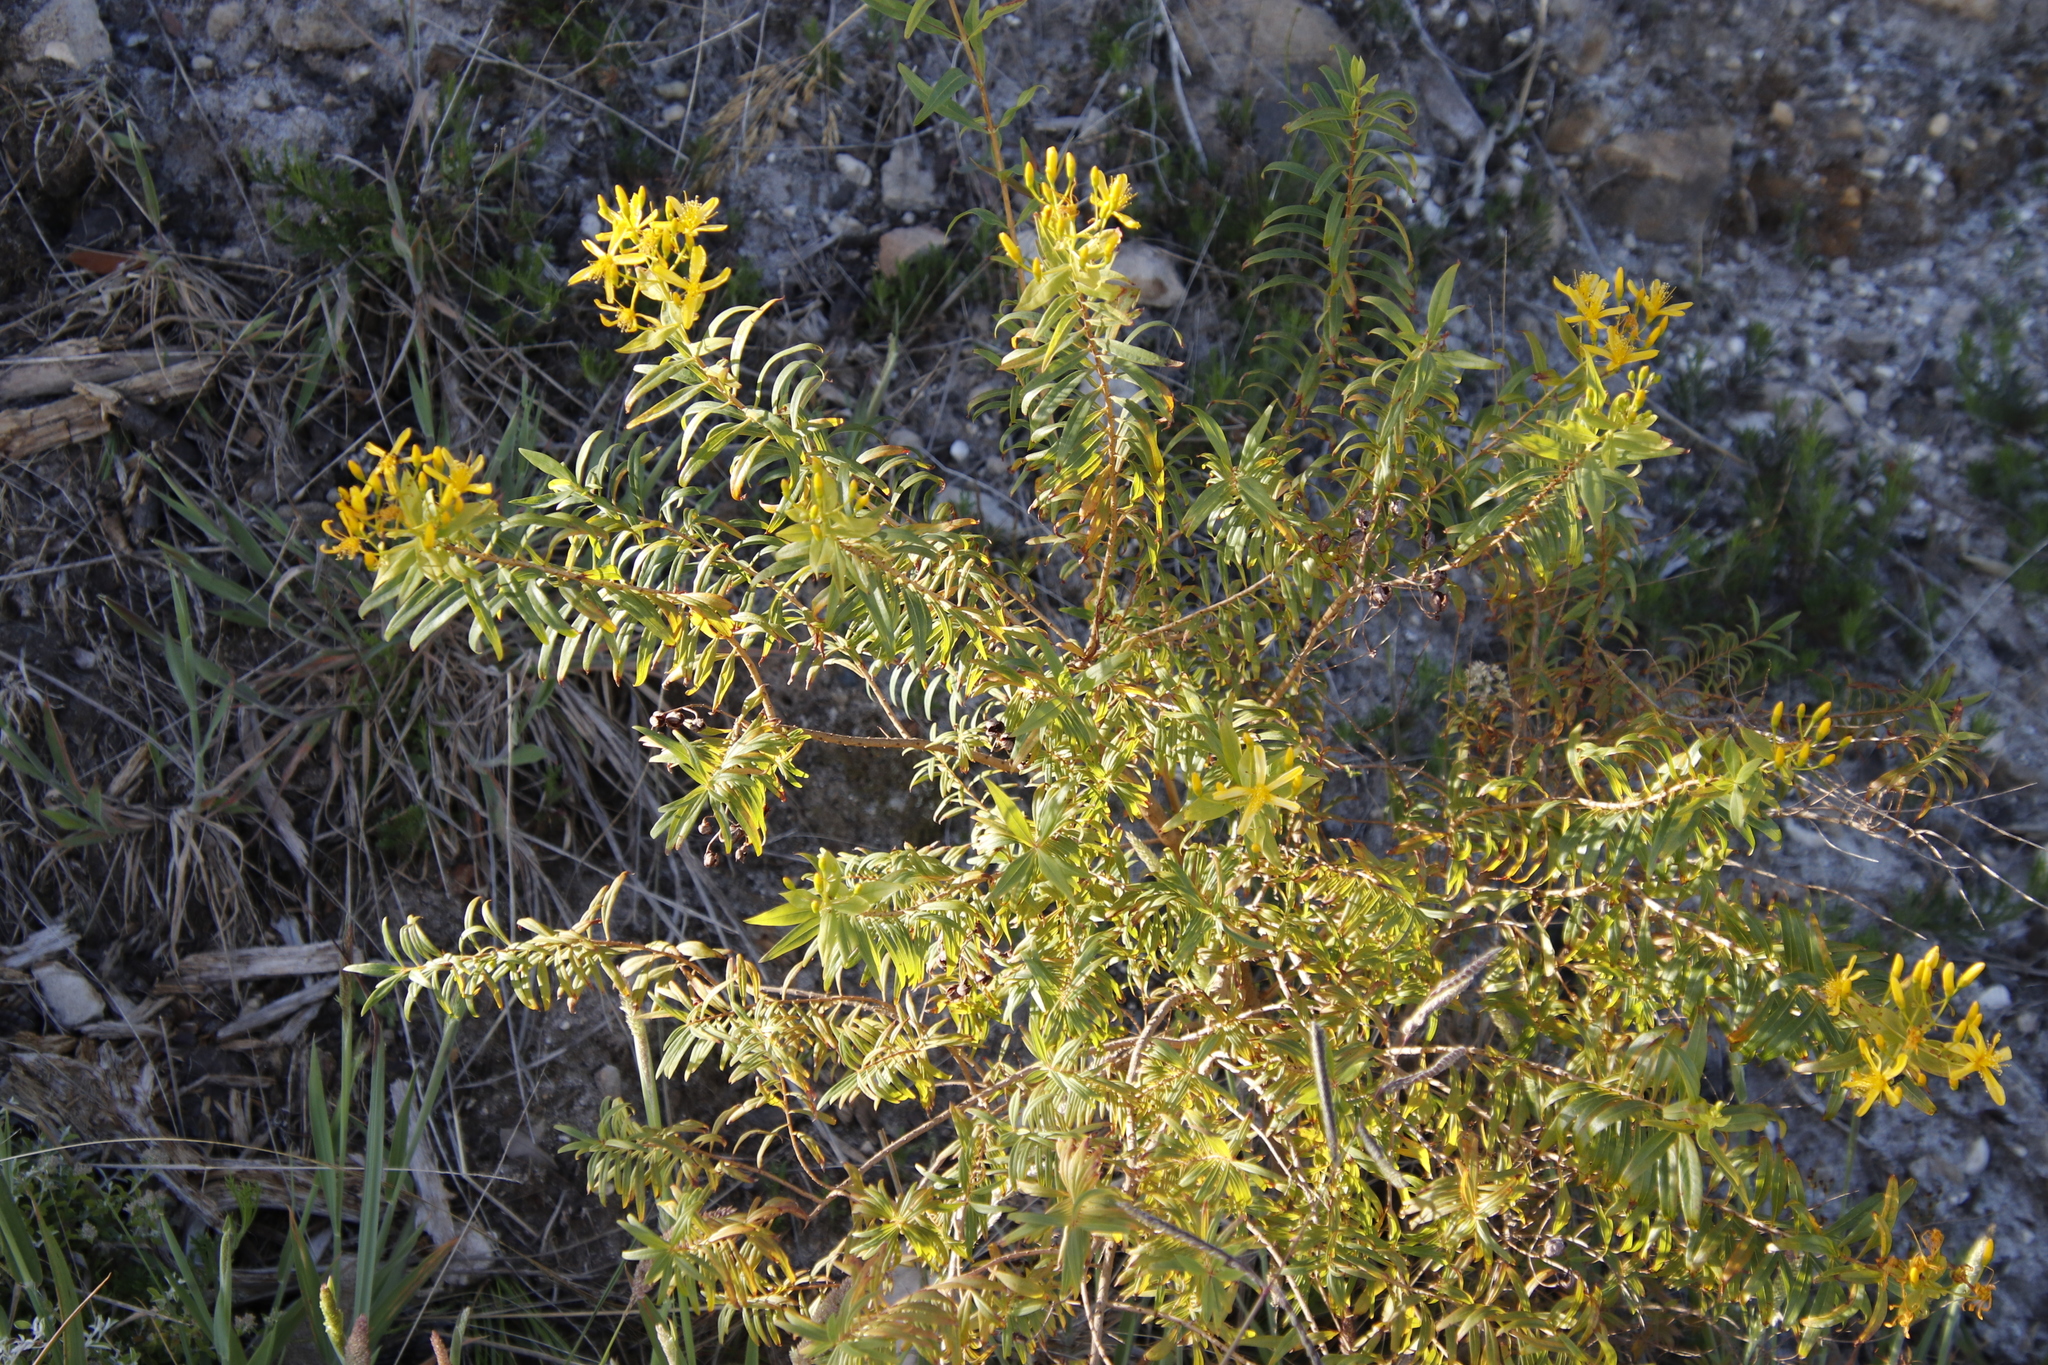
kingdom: Plantae
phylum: Tracheophyta
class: Magnoliopsida
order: Malpighiales
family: Hypericaceae
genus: Hypericum
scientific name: Hypericum canariense
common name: Canary island st. johnswort
